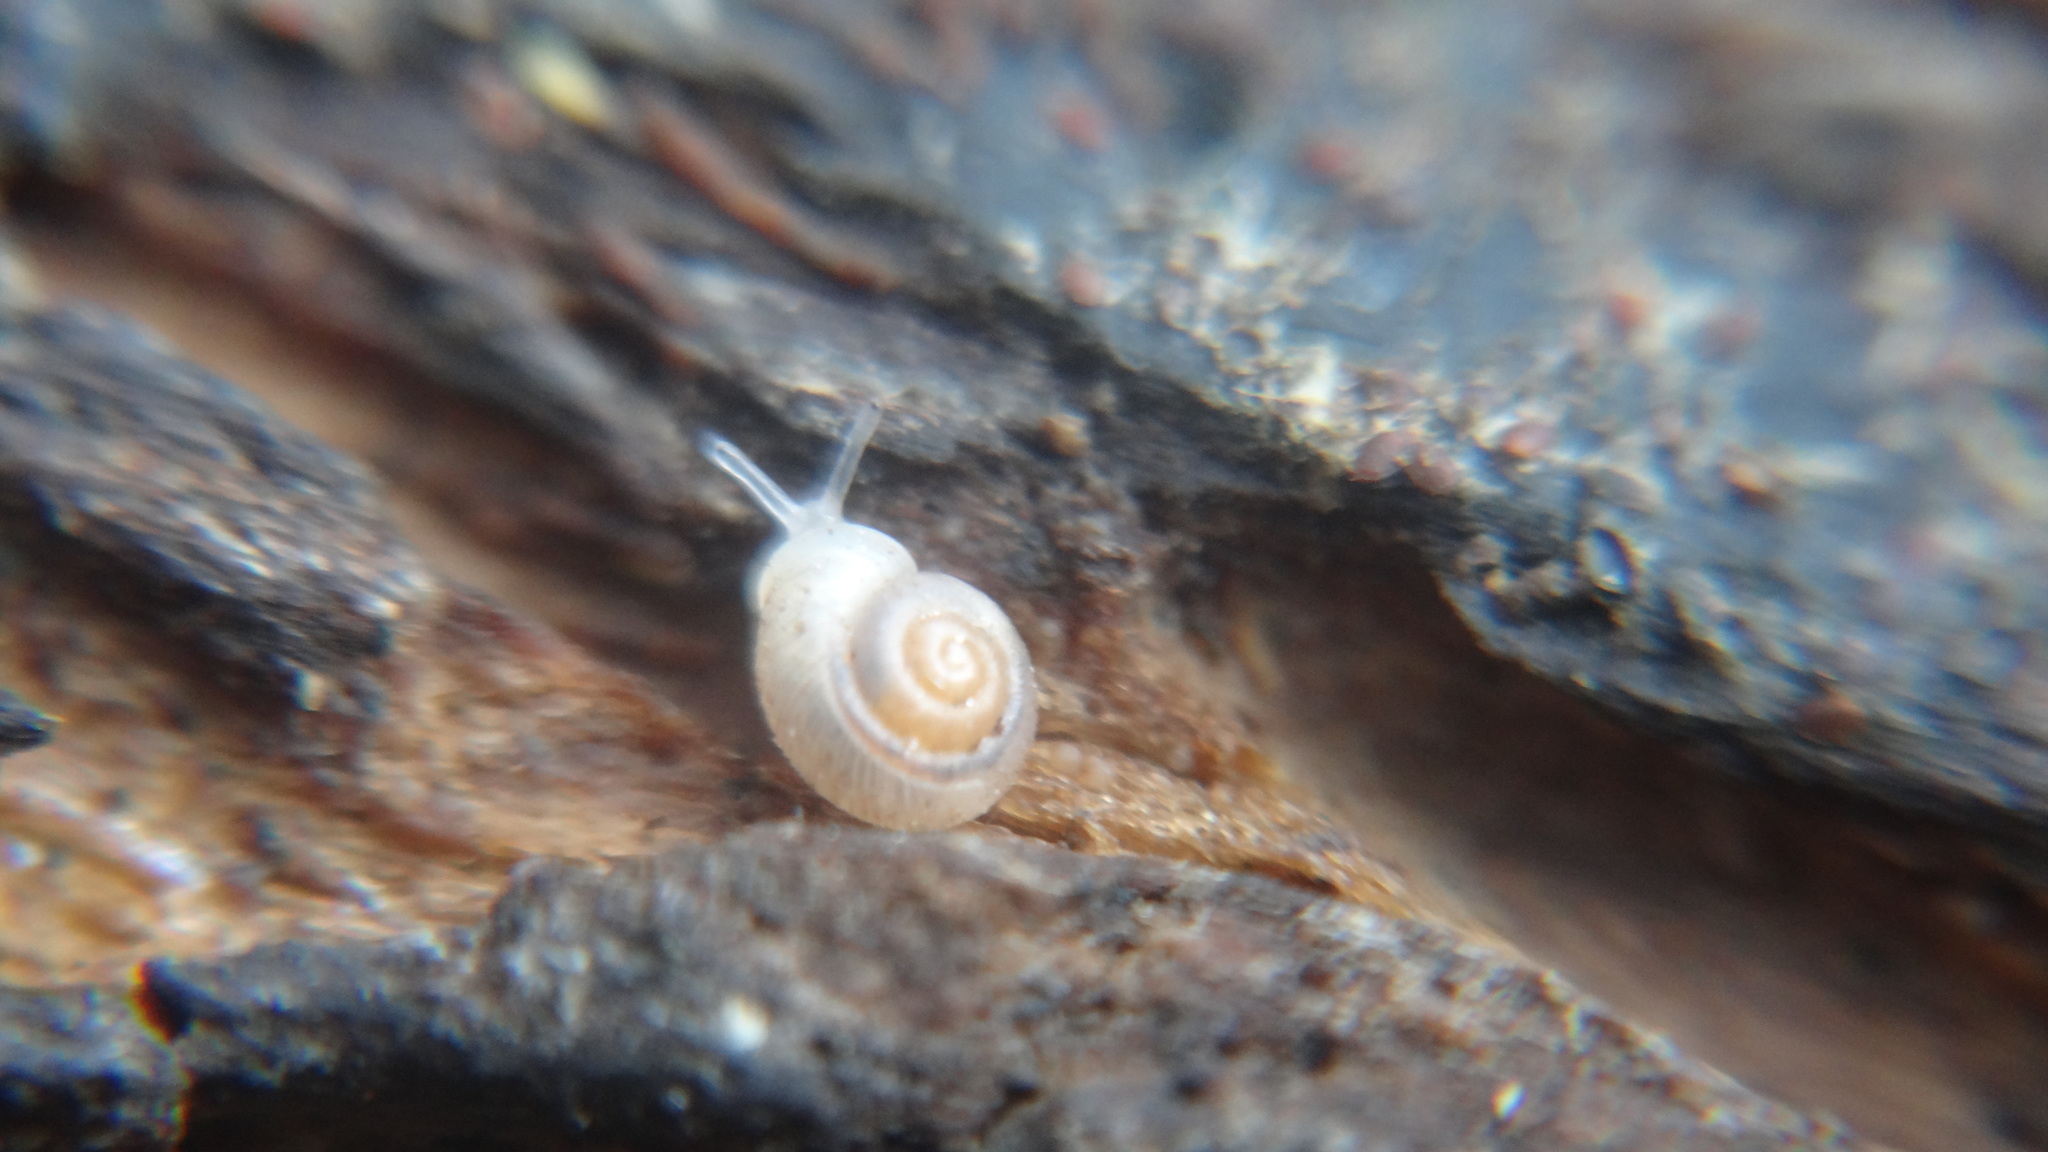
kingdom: Animalia
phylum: Mollusca
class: Gastropoda
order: Stylommatophora
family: Valloniidae
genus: Vallonia
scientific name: Vallonia pulchella
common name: Smooth grass snail
